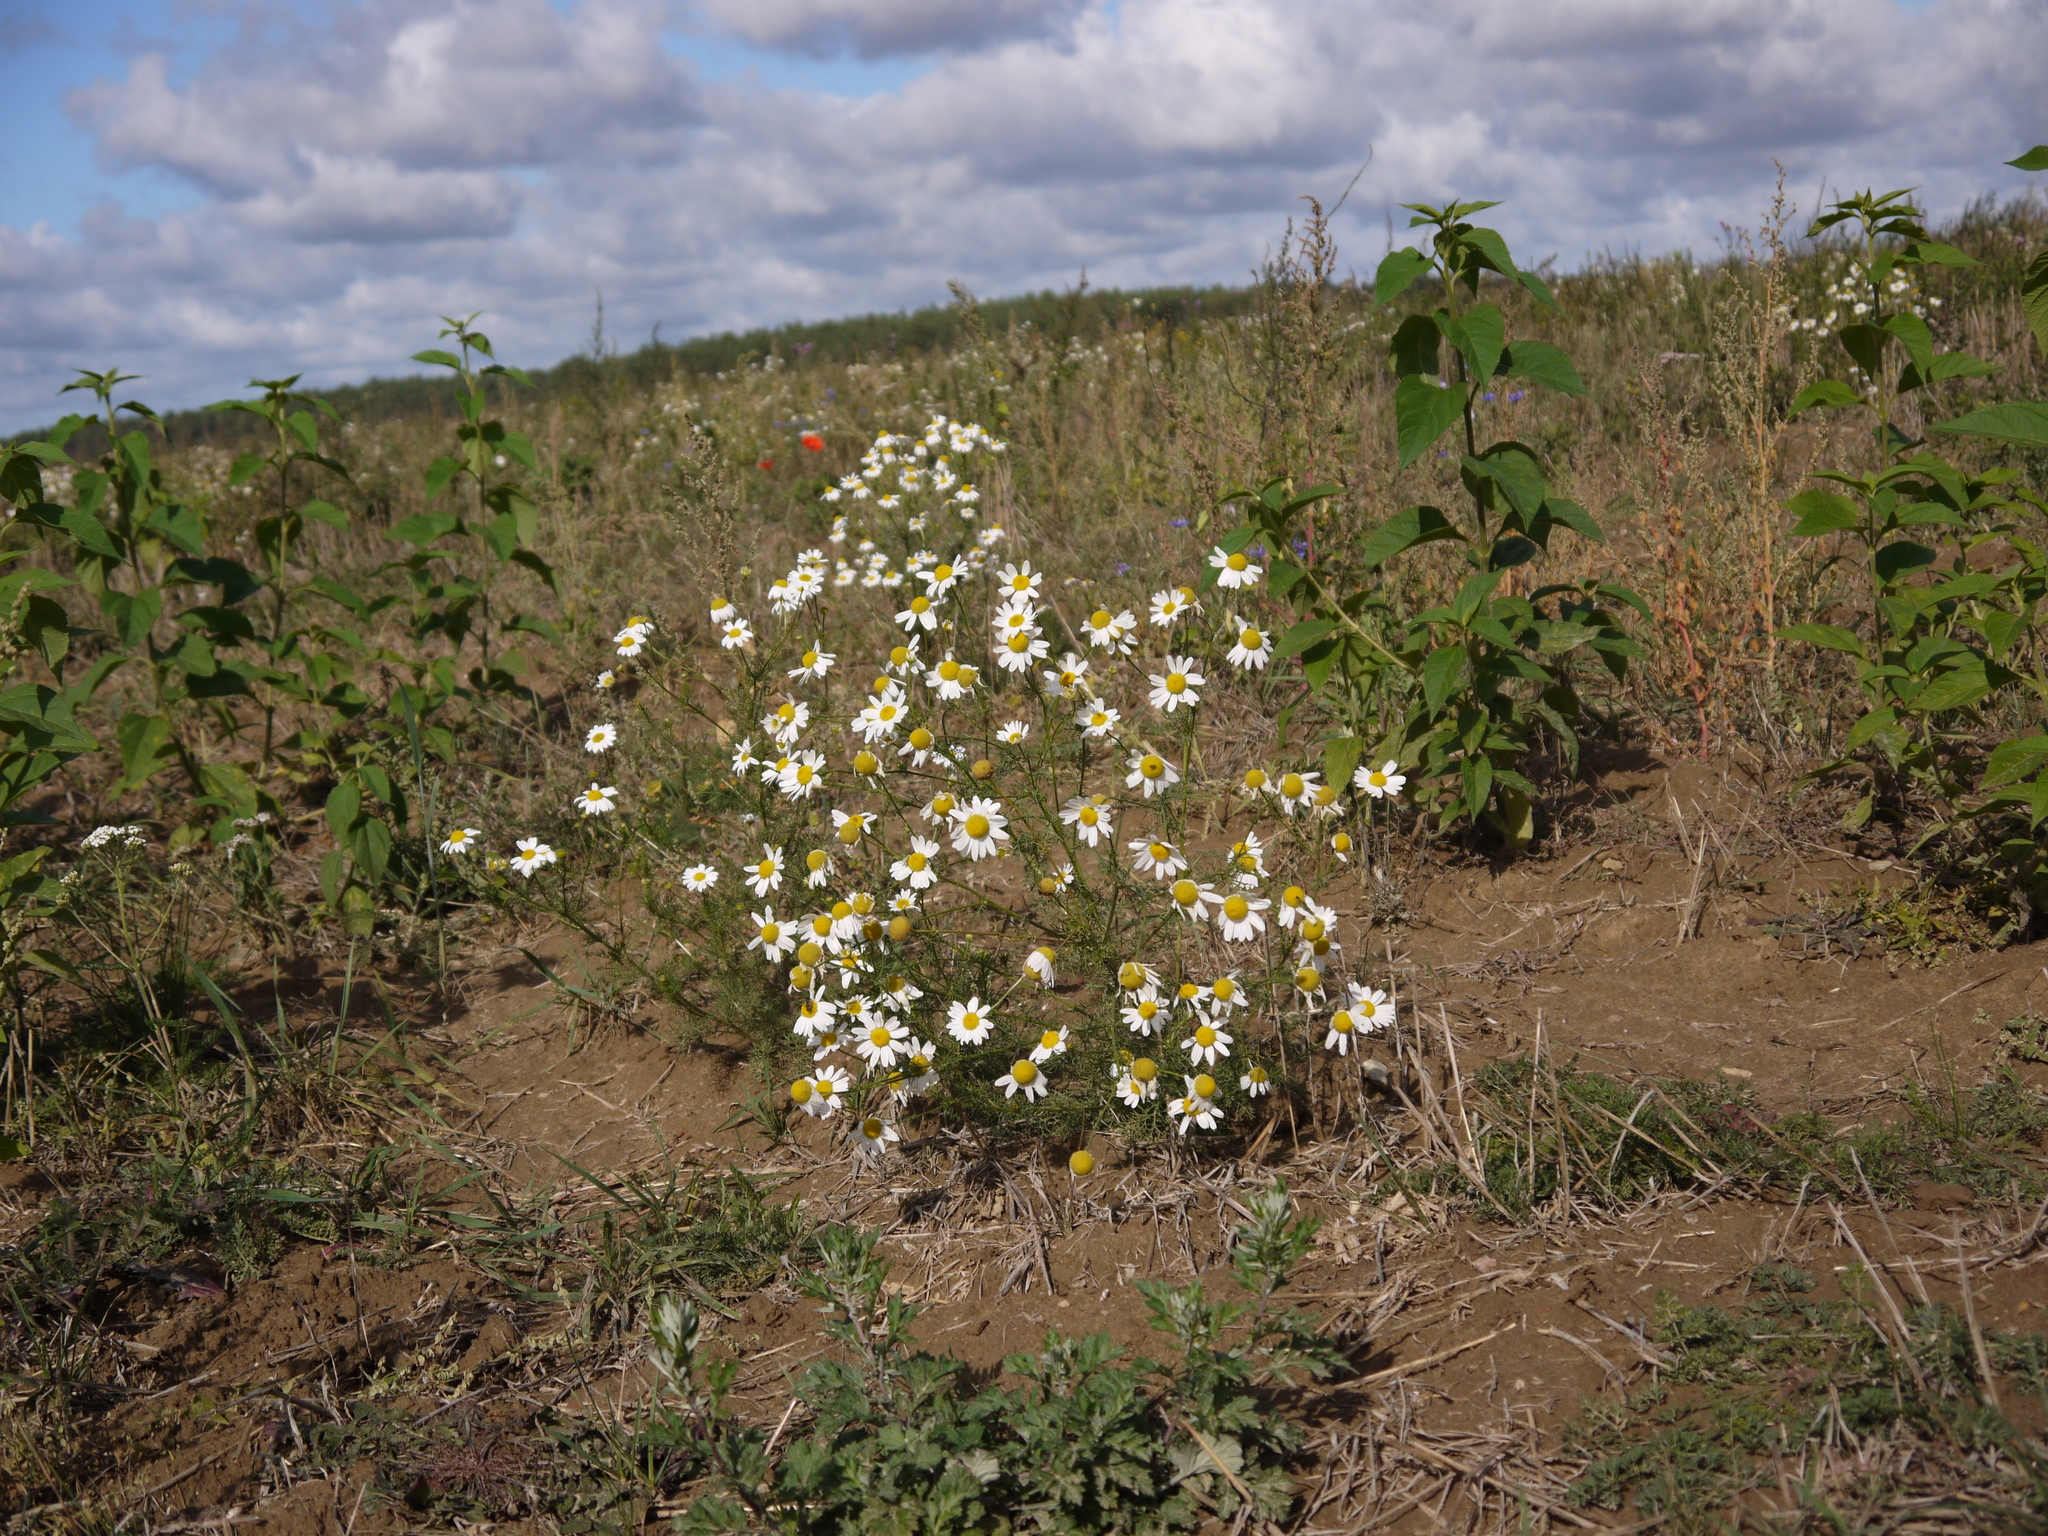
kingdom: Plantae
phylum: Tracheophyta
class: Magnoliopsida
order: Asterales
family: Asteraceae
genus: Tripleurospermum
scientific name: Tripleurospermum inodorum
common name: Scentless mayweed
